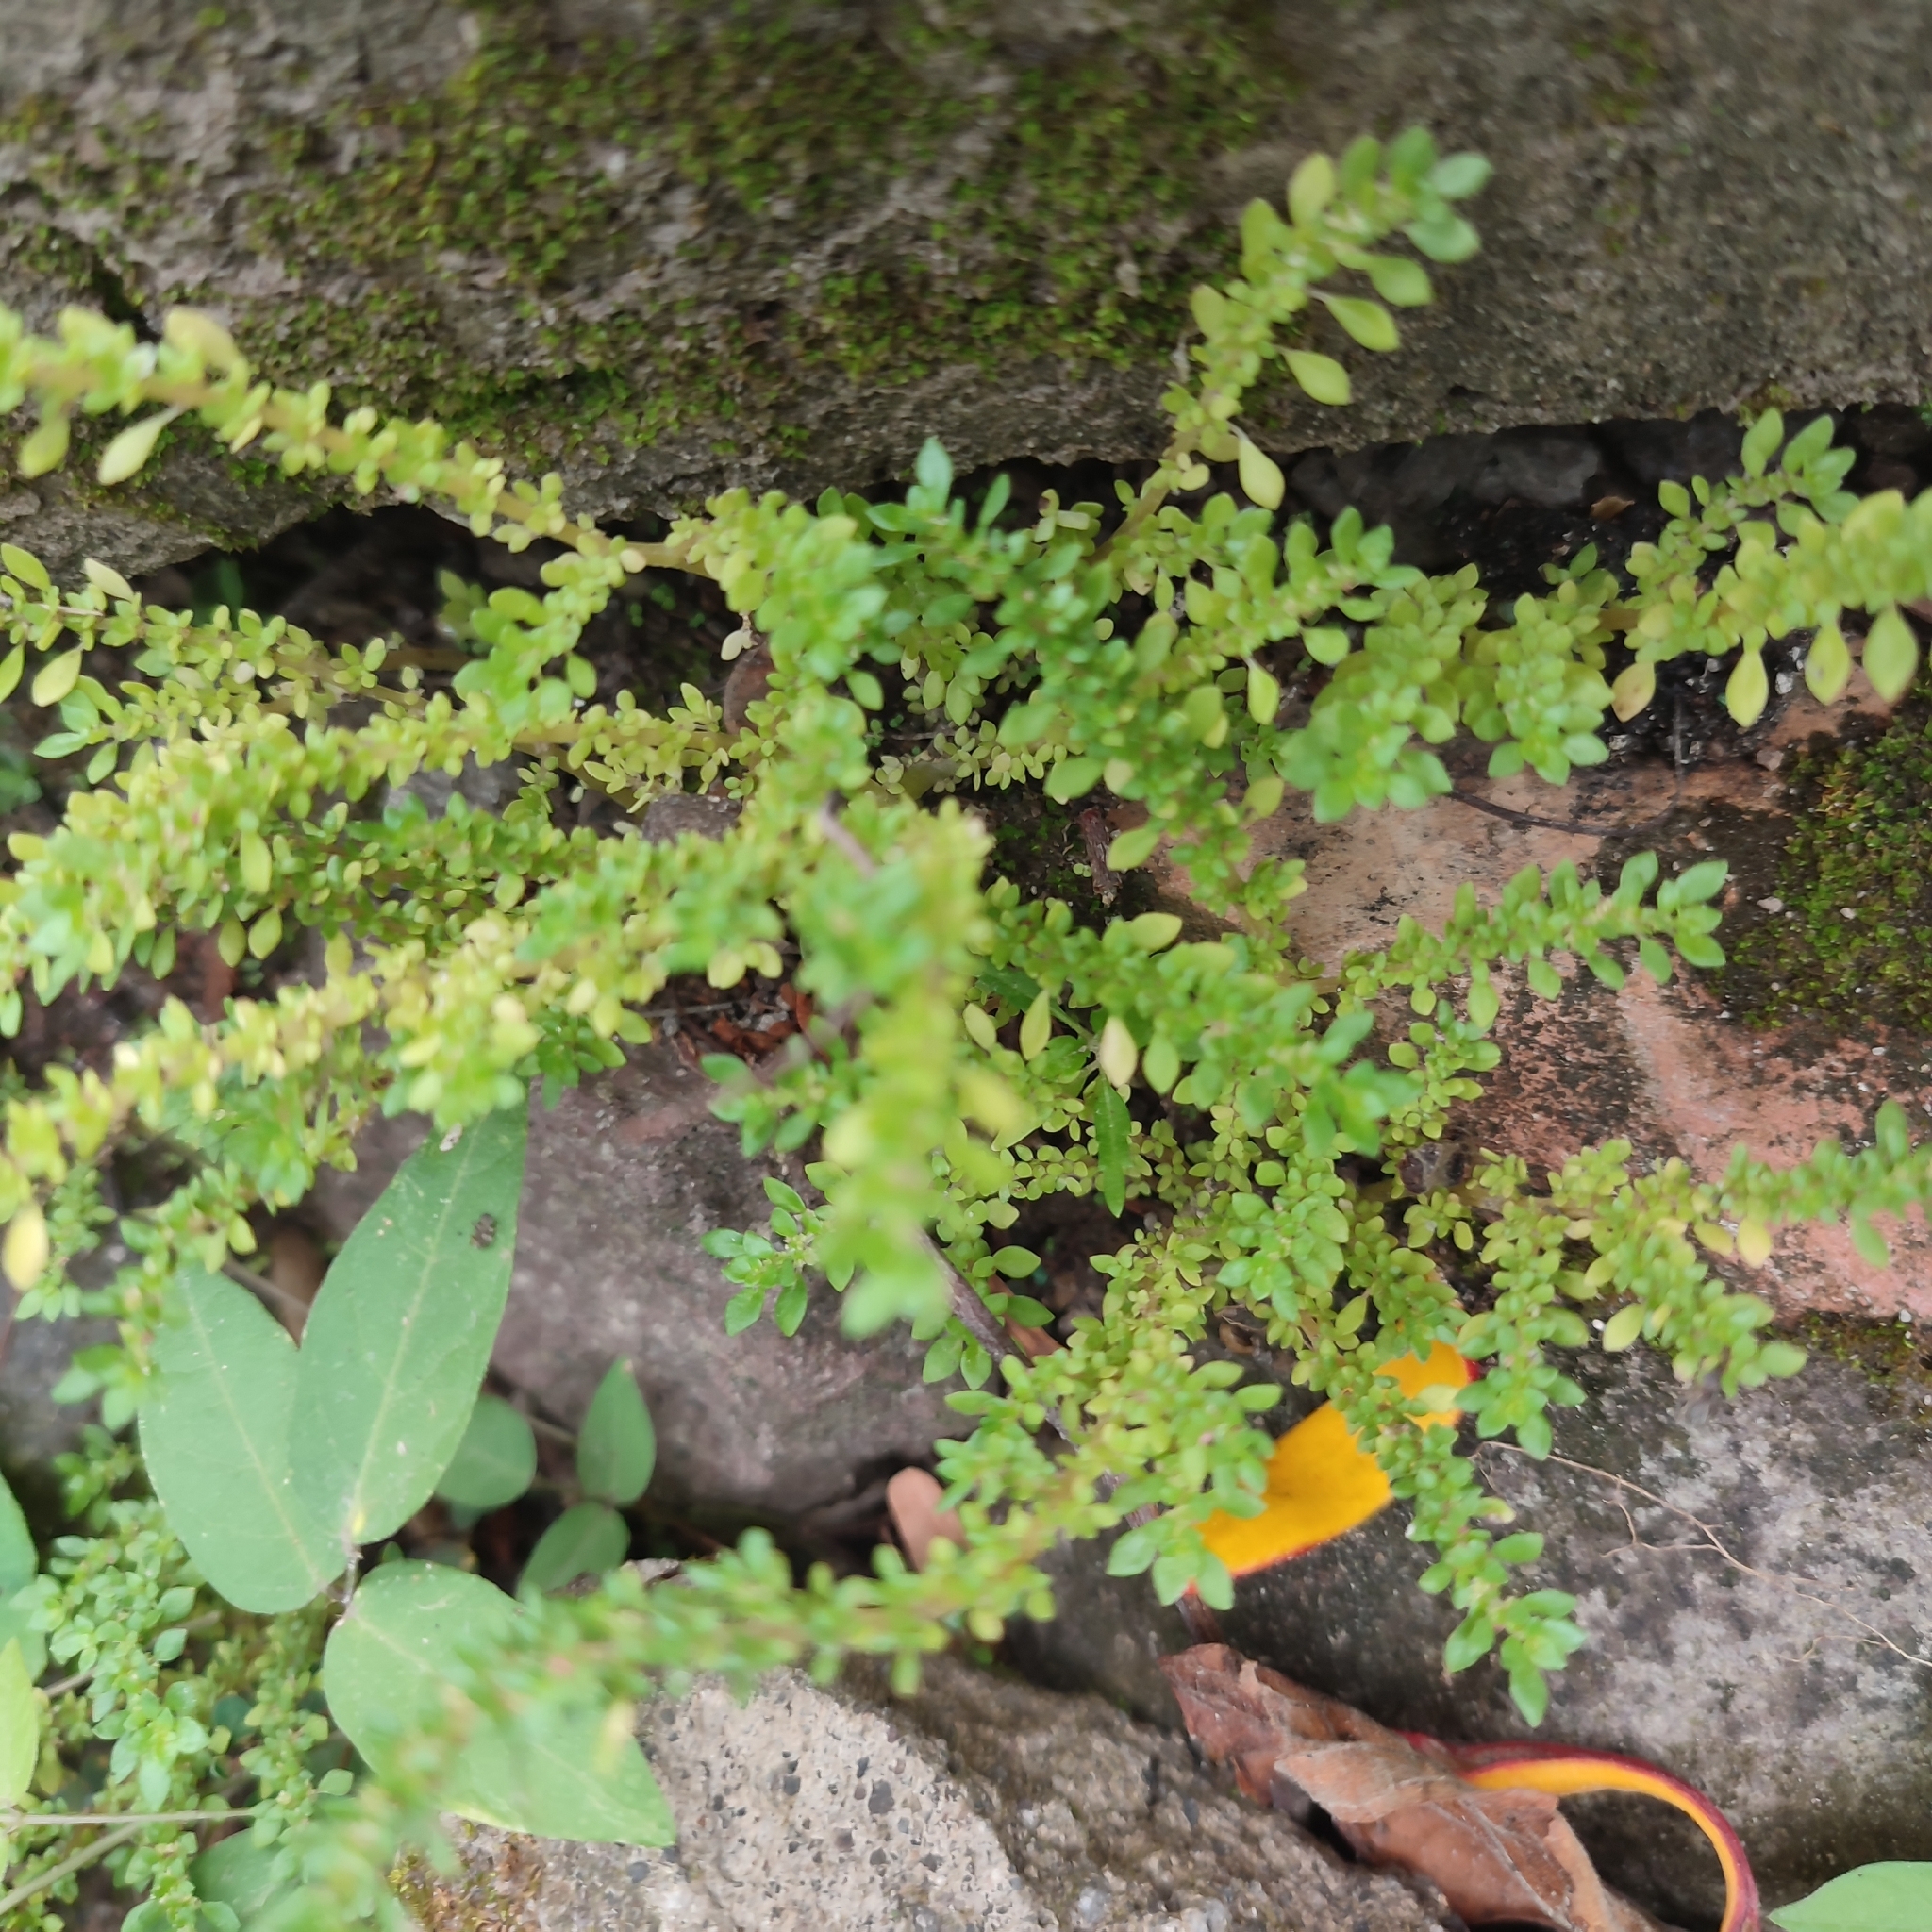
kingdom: Plantae
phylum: Tracheophyta
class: Magnoliopsida
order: Rosales
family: Urticaceae
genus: Pilea
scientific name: Pilea microphylla
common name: Artillery-plant
